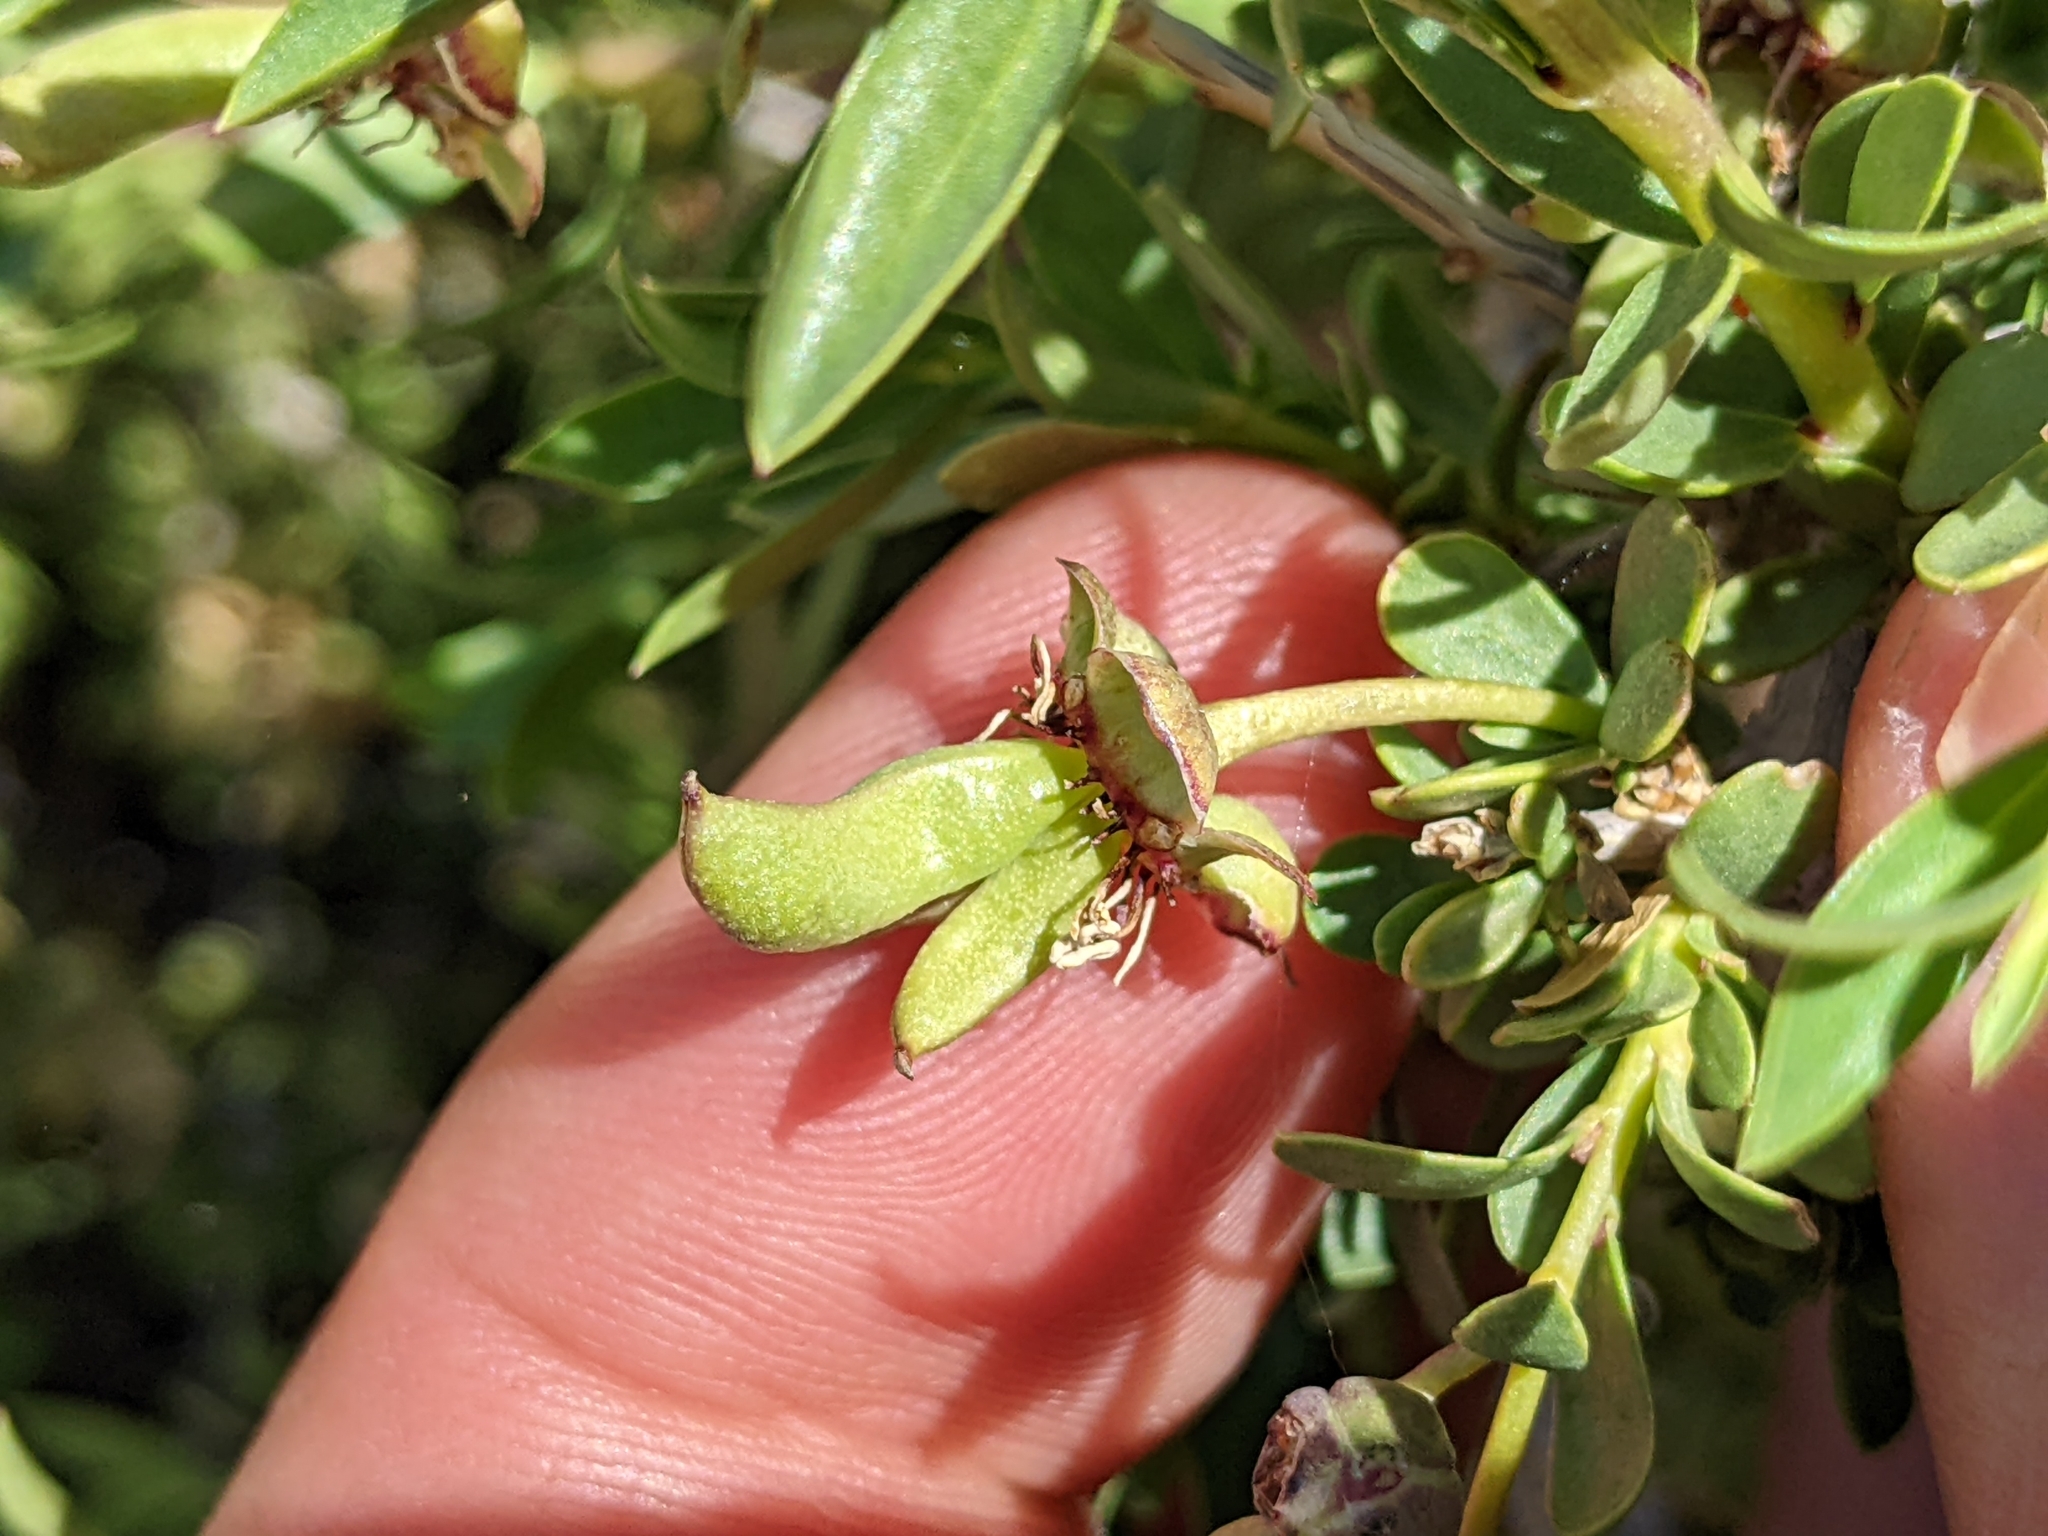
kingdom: Plantae
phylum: Tracheophyta
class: Magnoliopsida
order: Crossosomatales
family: Crossosomataceae
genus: Crossosoma
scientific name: Crossosoma bigelovii
